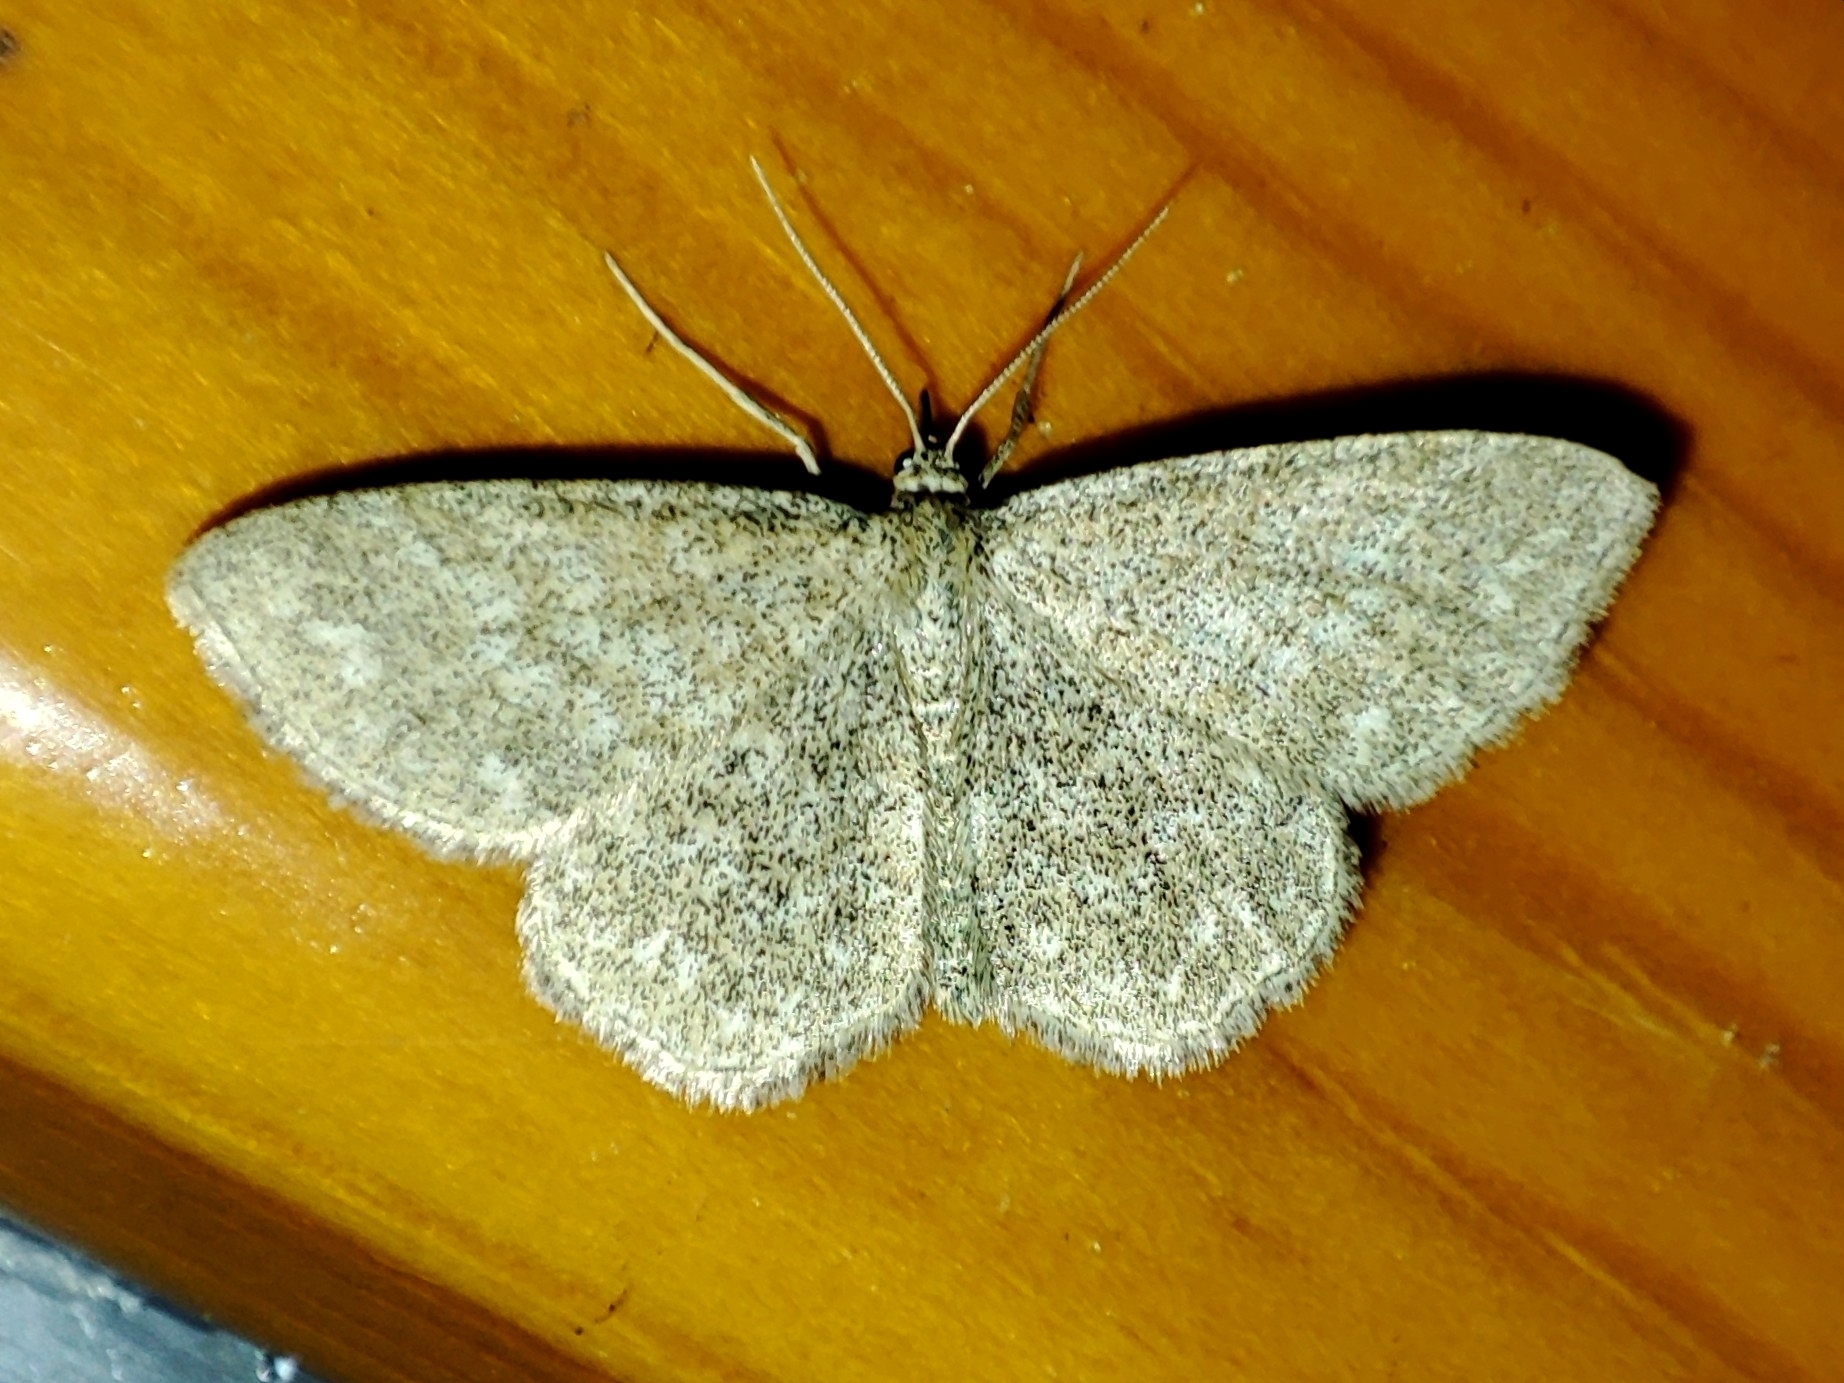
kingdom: Animalia
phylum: Arthropoda
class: Insecta
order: Lepidoptera
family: Geometridae
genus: Scopula
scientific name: Scopula immorata
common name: Lewes wave
